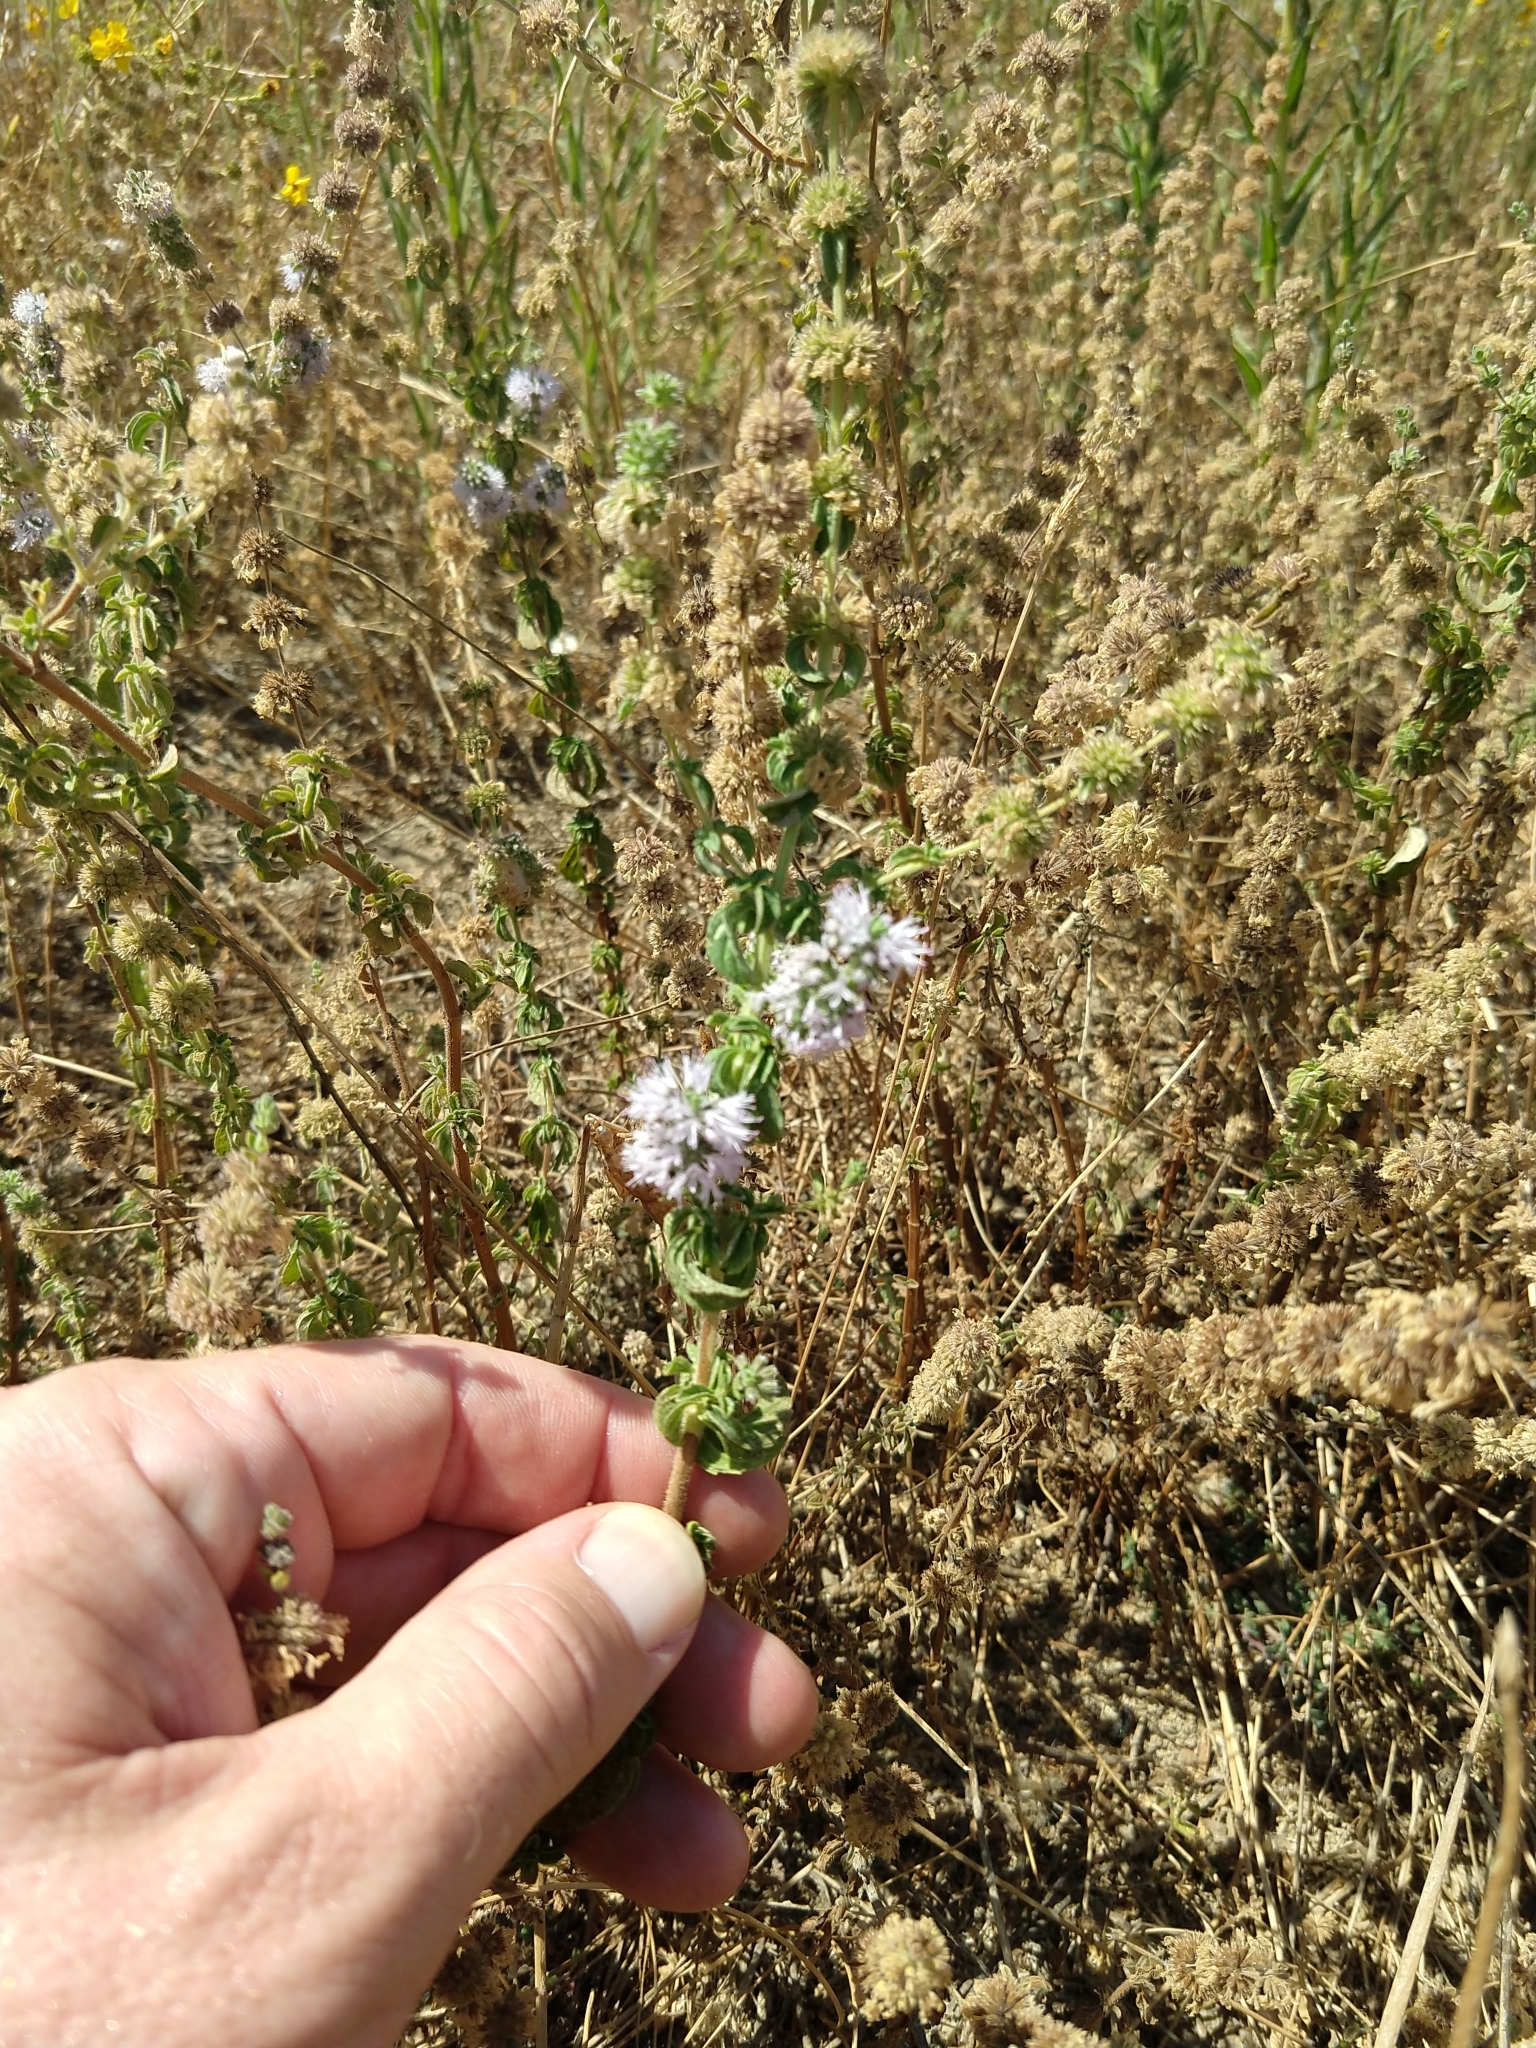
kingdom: Plantae
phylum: Tracheophyta
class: Magnoliopsida
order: Lamiales
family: Lamiaceae
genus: Mentha
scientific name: Mentha pulegium
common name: Pennyroyal
